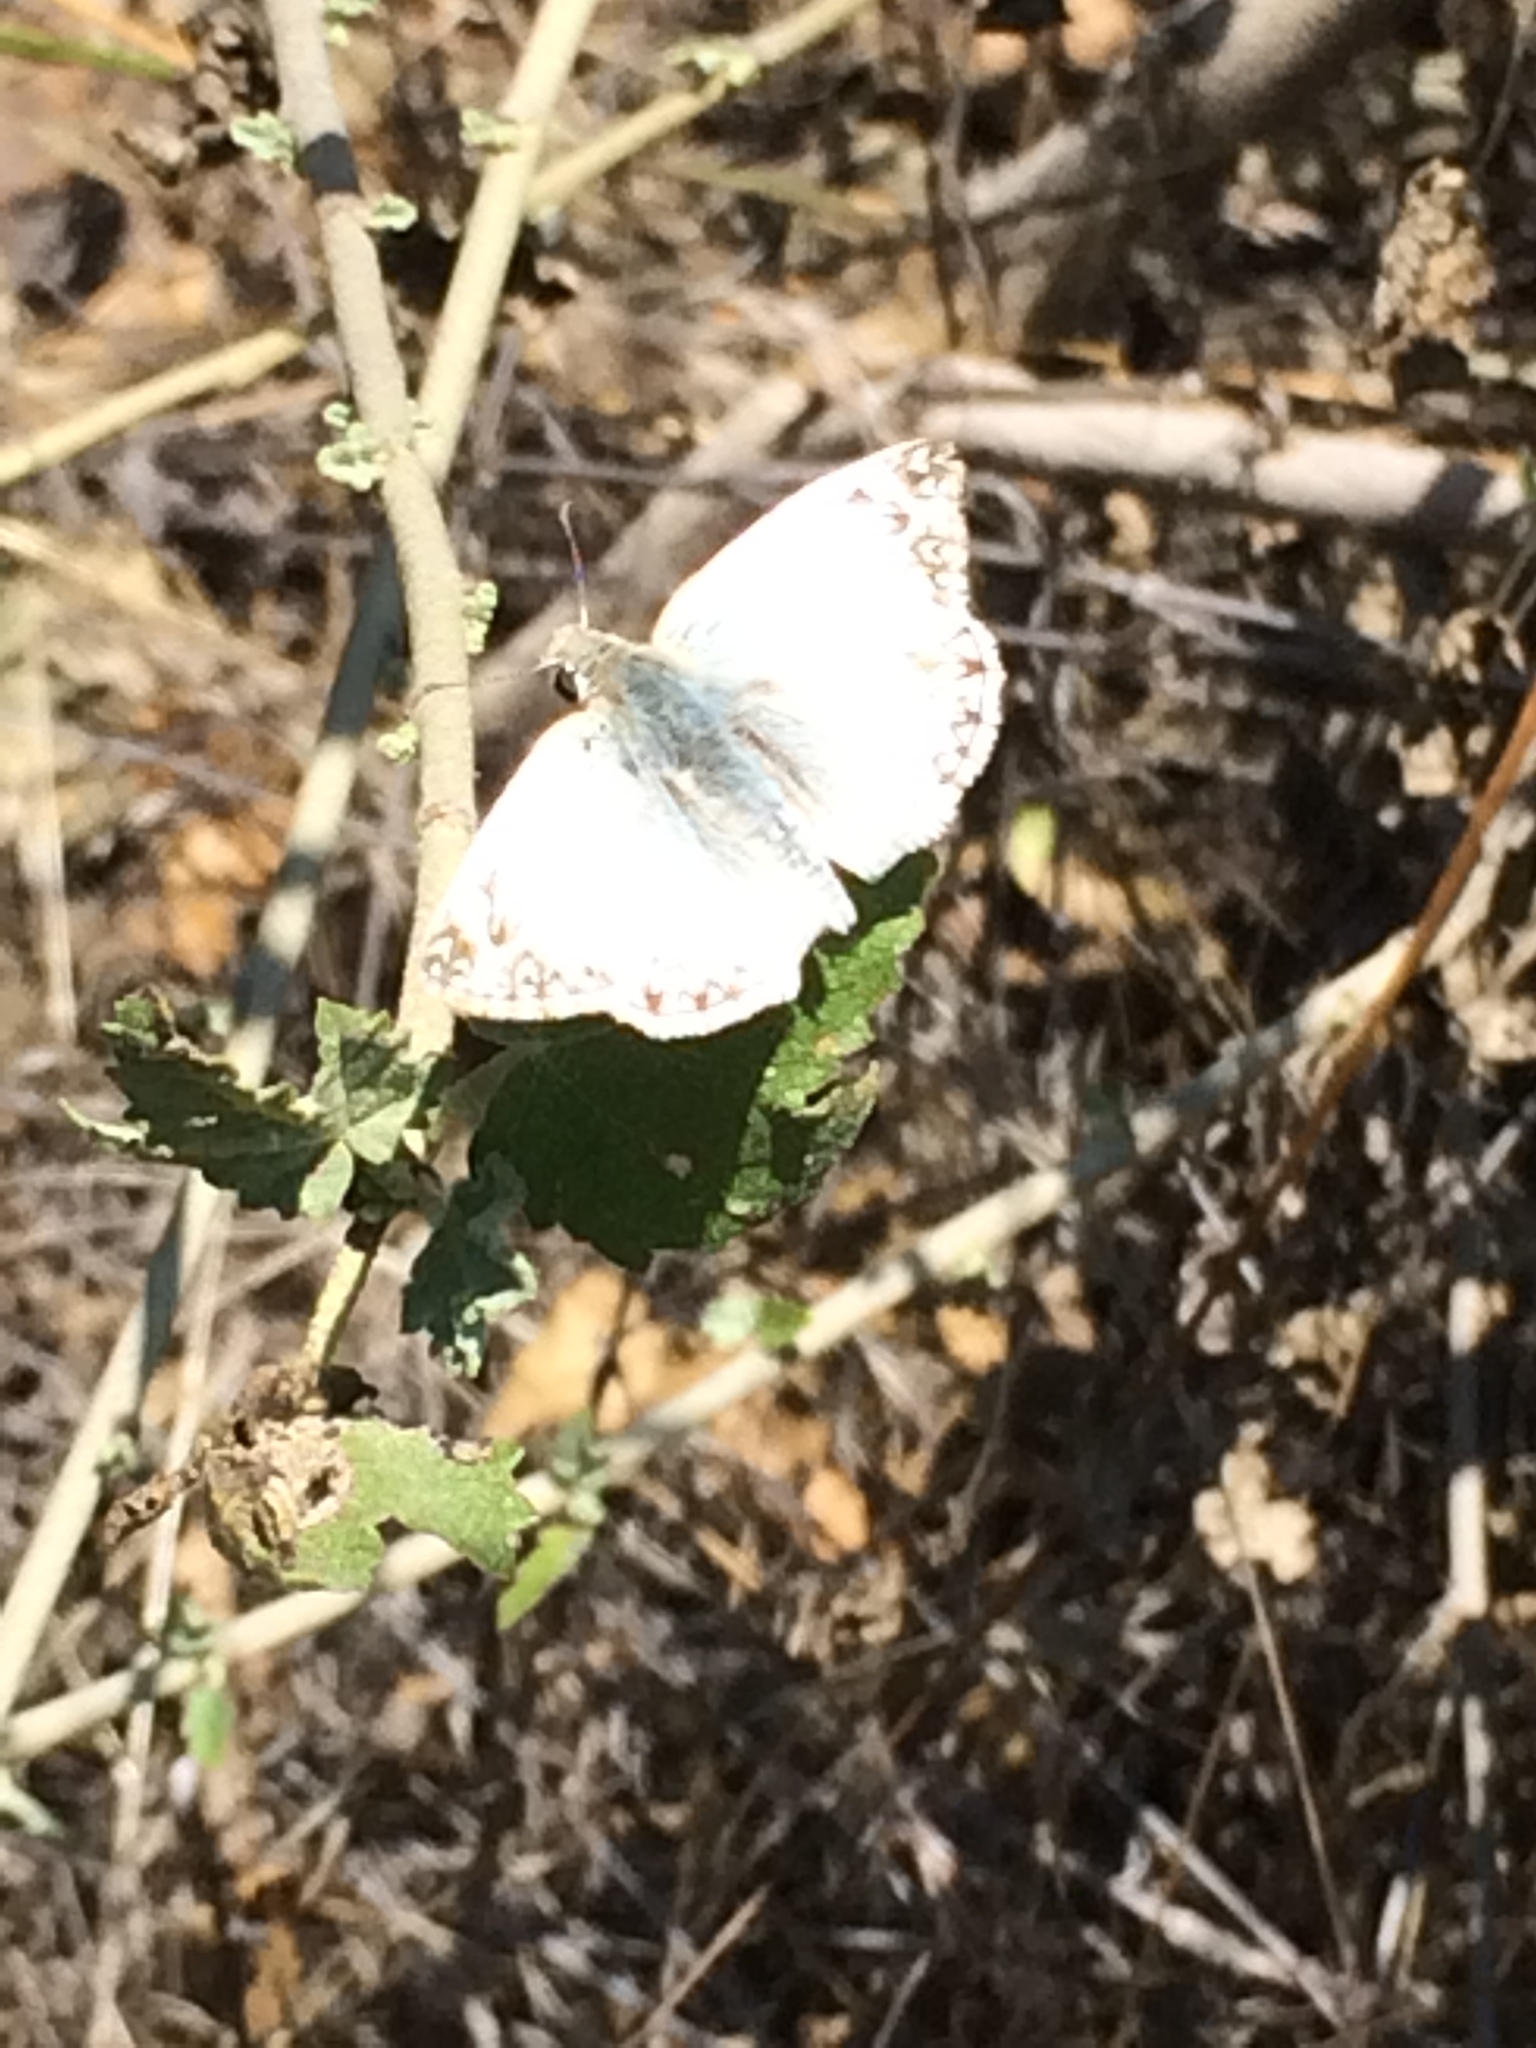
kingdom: Animalia
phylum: Arthropoda
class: Insecta
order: Lepidoptera
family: Hesperiidae
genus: Heliopetes
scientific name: Heliopetes ericetorum
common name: Northern white-skipper
